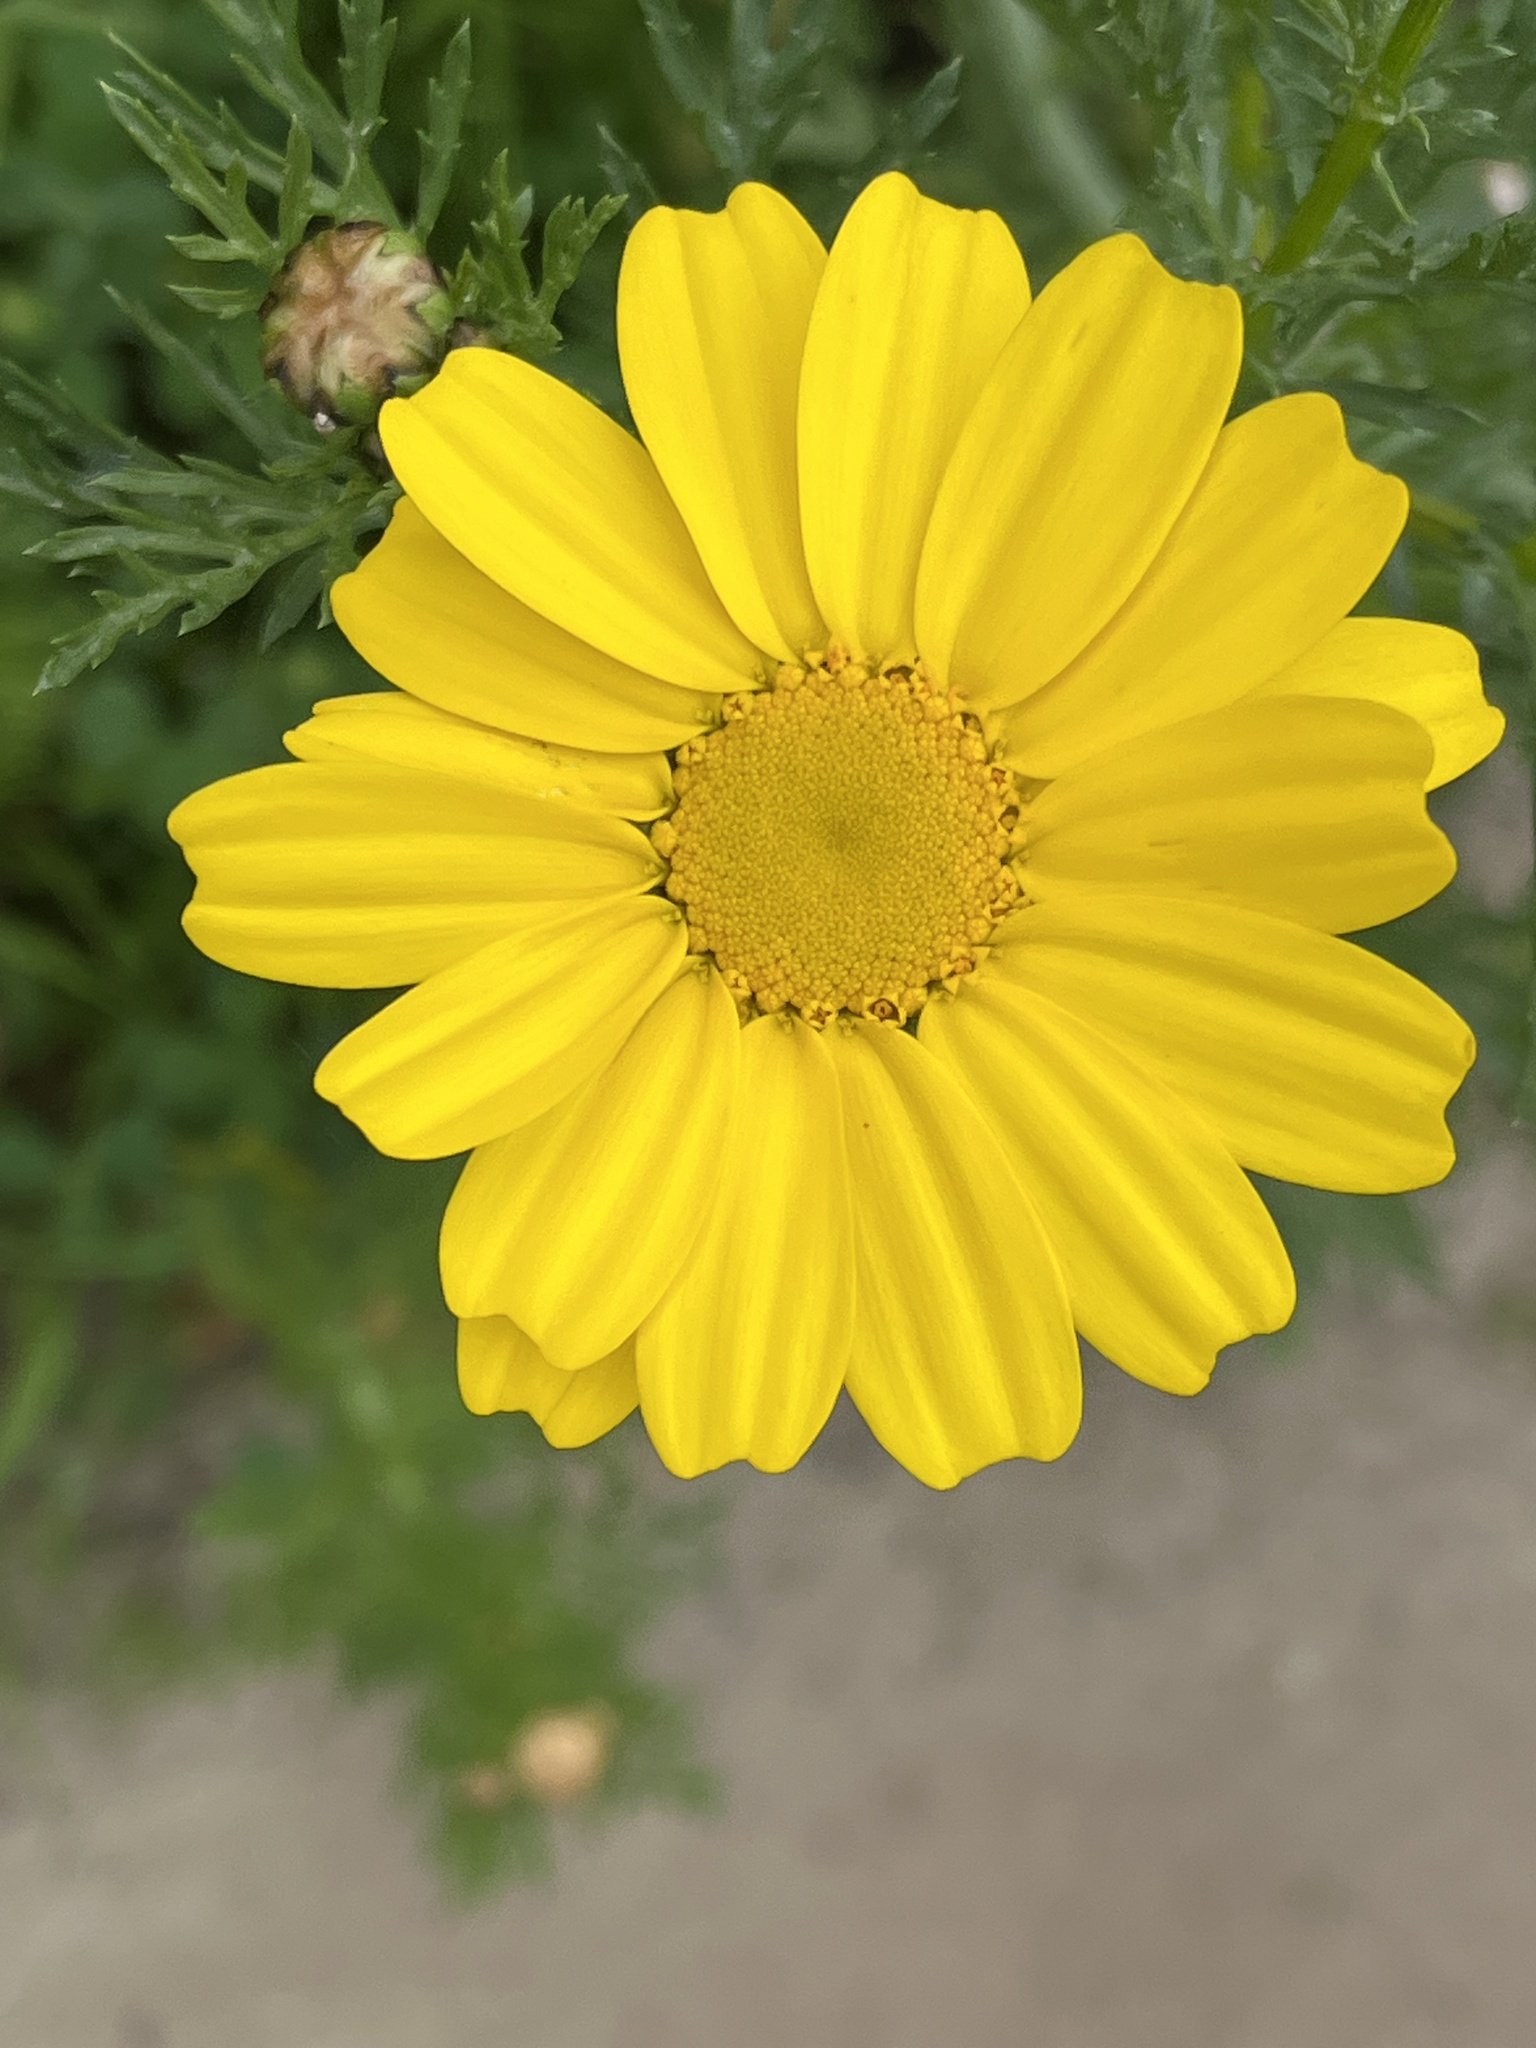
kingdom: Plantae
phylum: Tracheophyta
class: Magnoliopsida
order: Asterales
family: Asteraceae
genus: Glebionis
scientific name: Glebionis coronaria
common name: Crowndaisy
